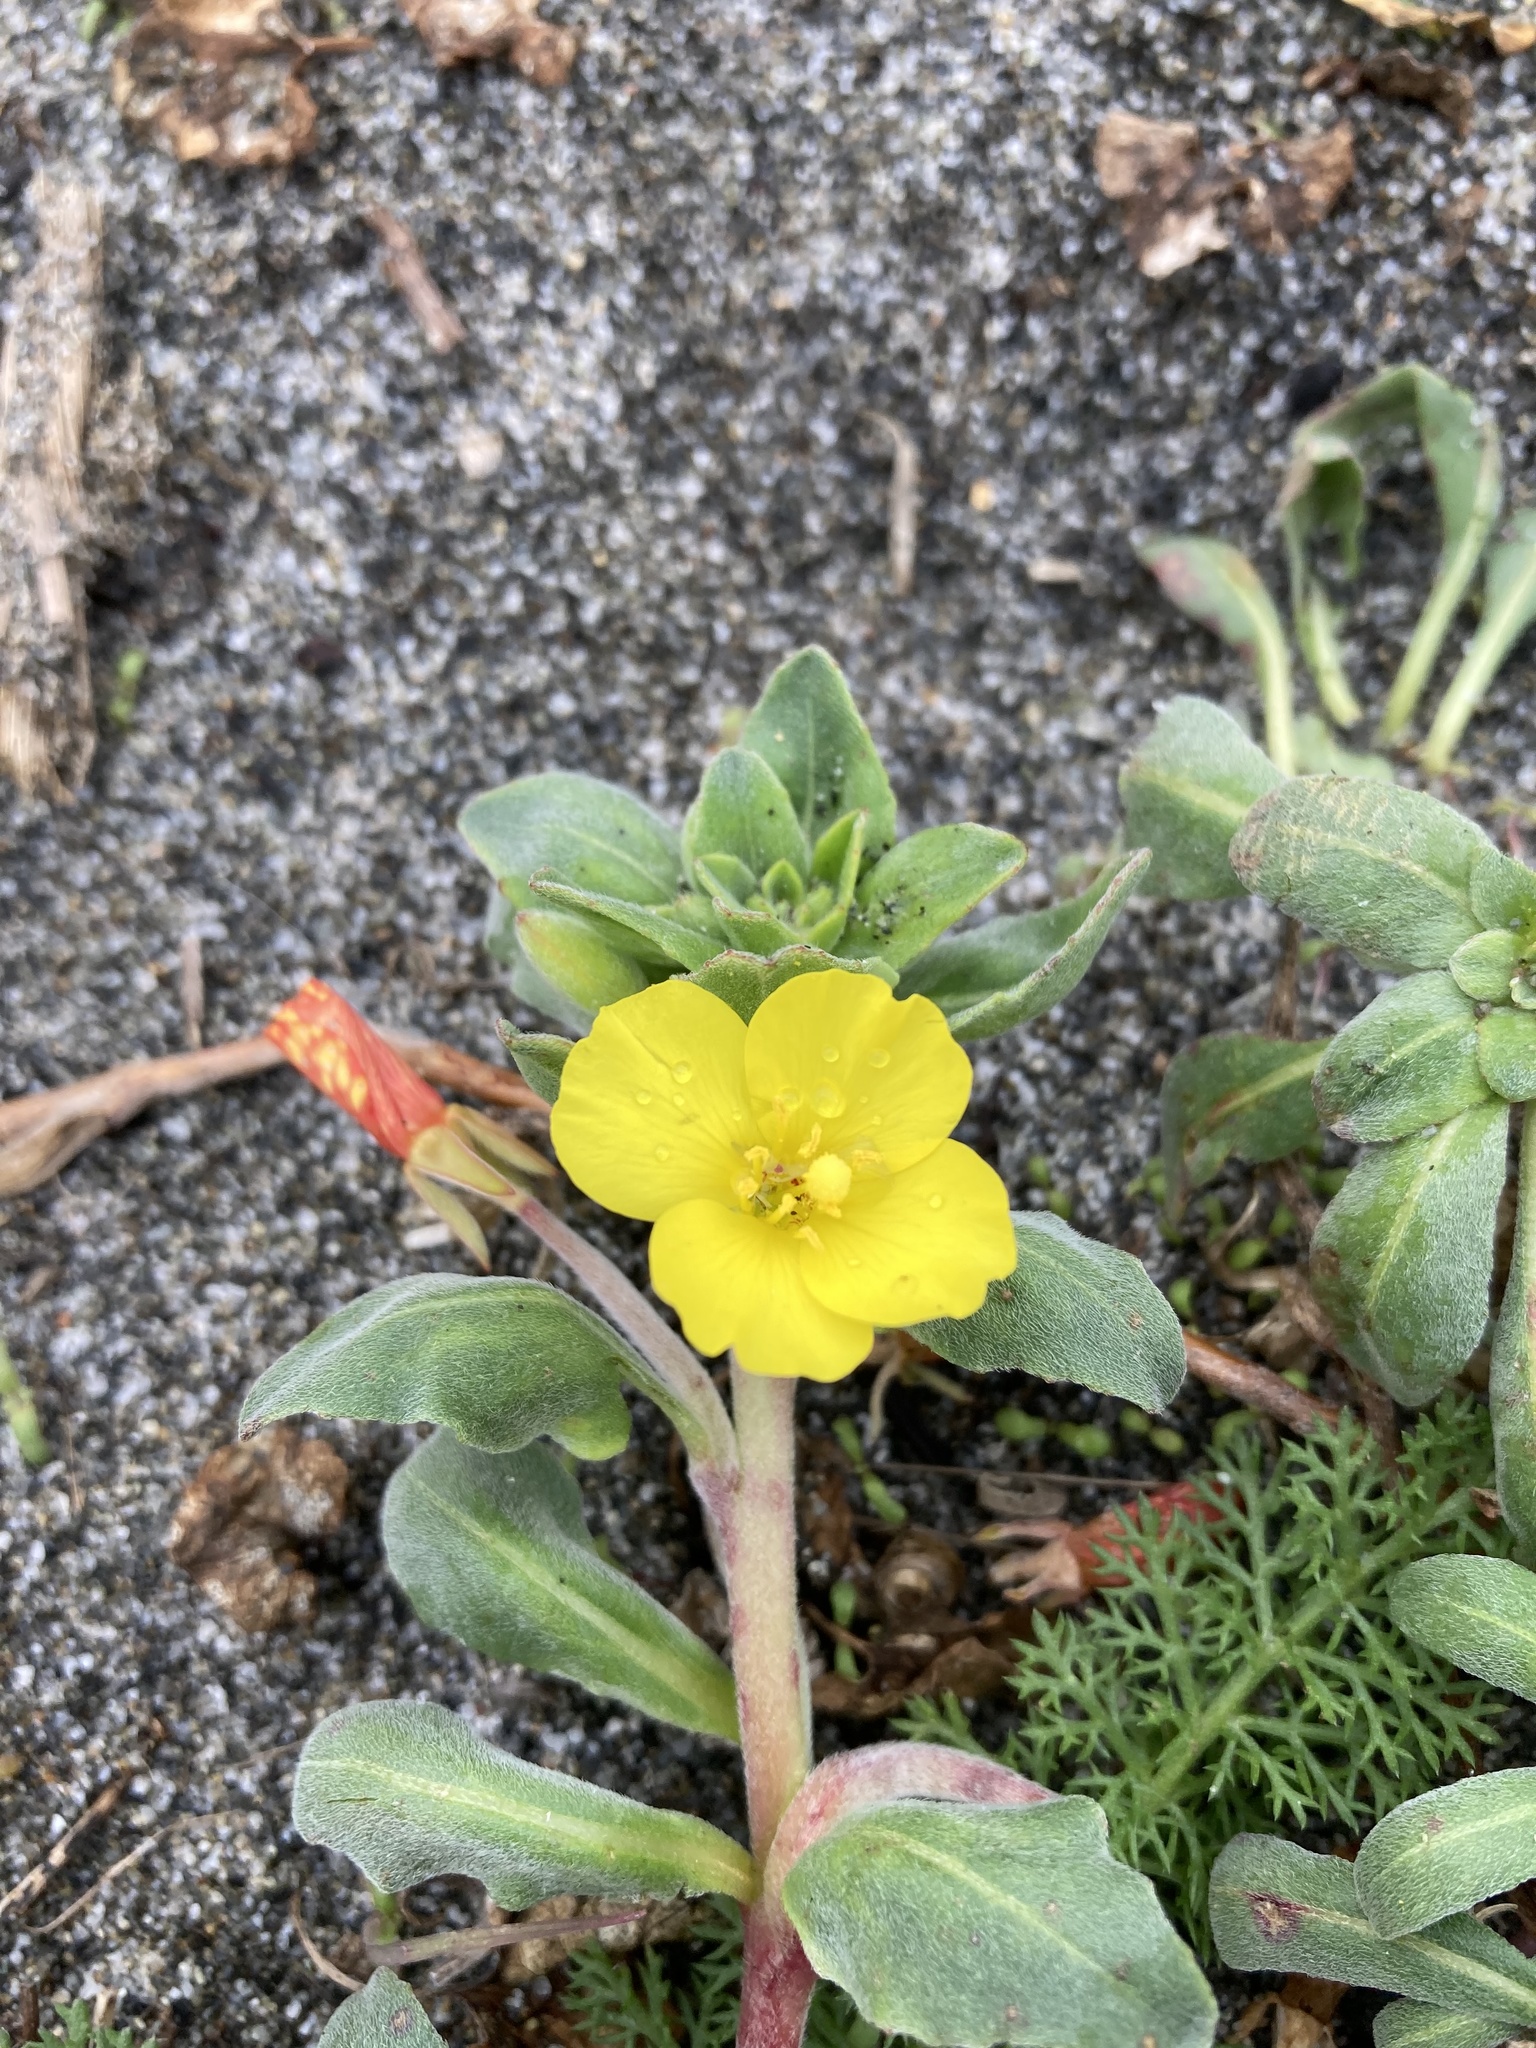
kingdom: Plantae
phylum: Tracheophyta
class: Magnoliopsida
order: Myrtales
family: Onagraceae
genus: Camissoniopsis
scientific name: Camissoniopsis cheiranthifolia
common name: Beach suncup
